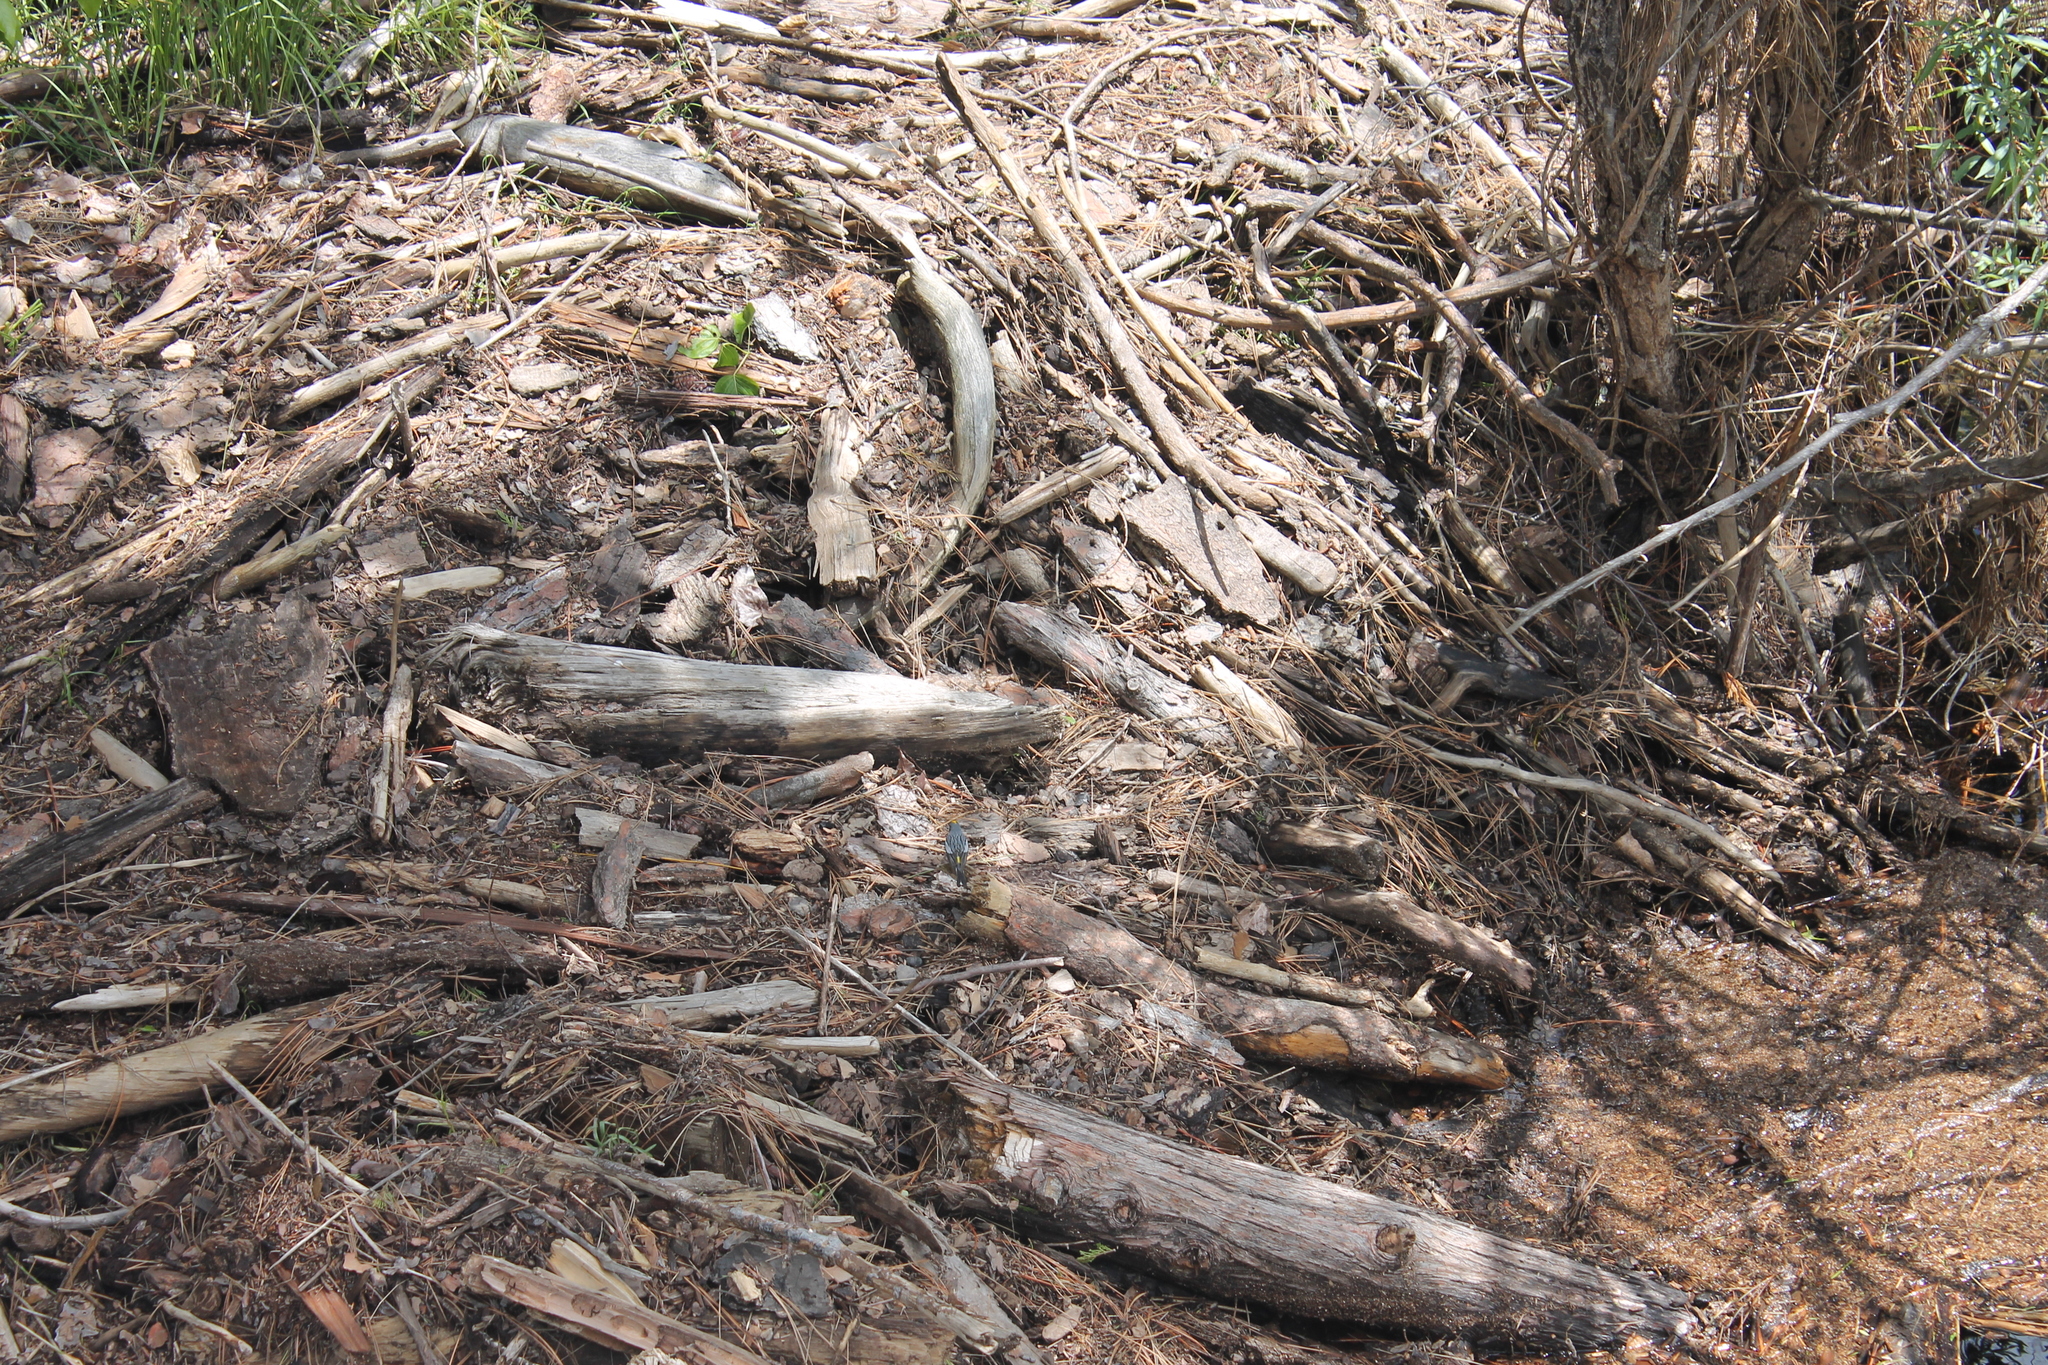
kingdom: Animalia
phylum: Chordata
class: Aves
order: Passeriformes
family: Parulidae
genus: Setophaga
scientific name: Setophaga auduboni
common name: Audubon's warbler
